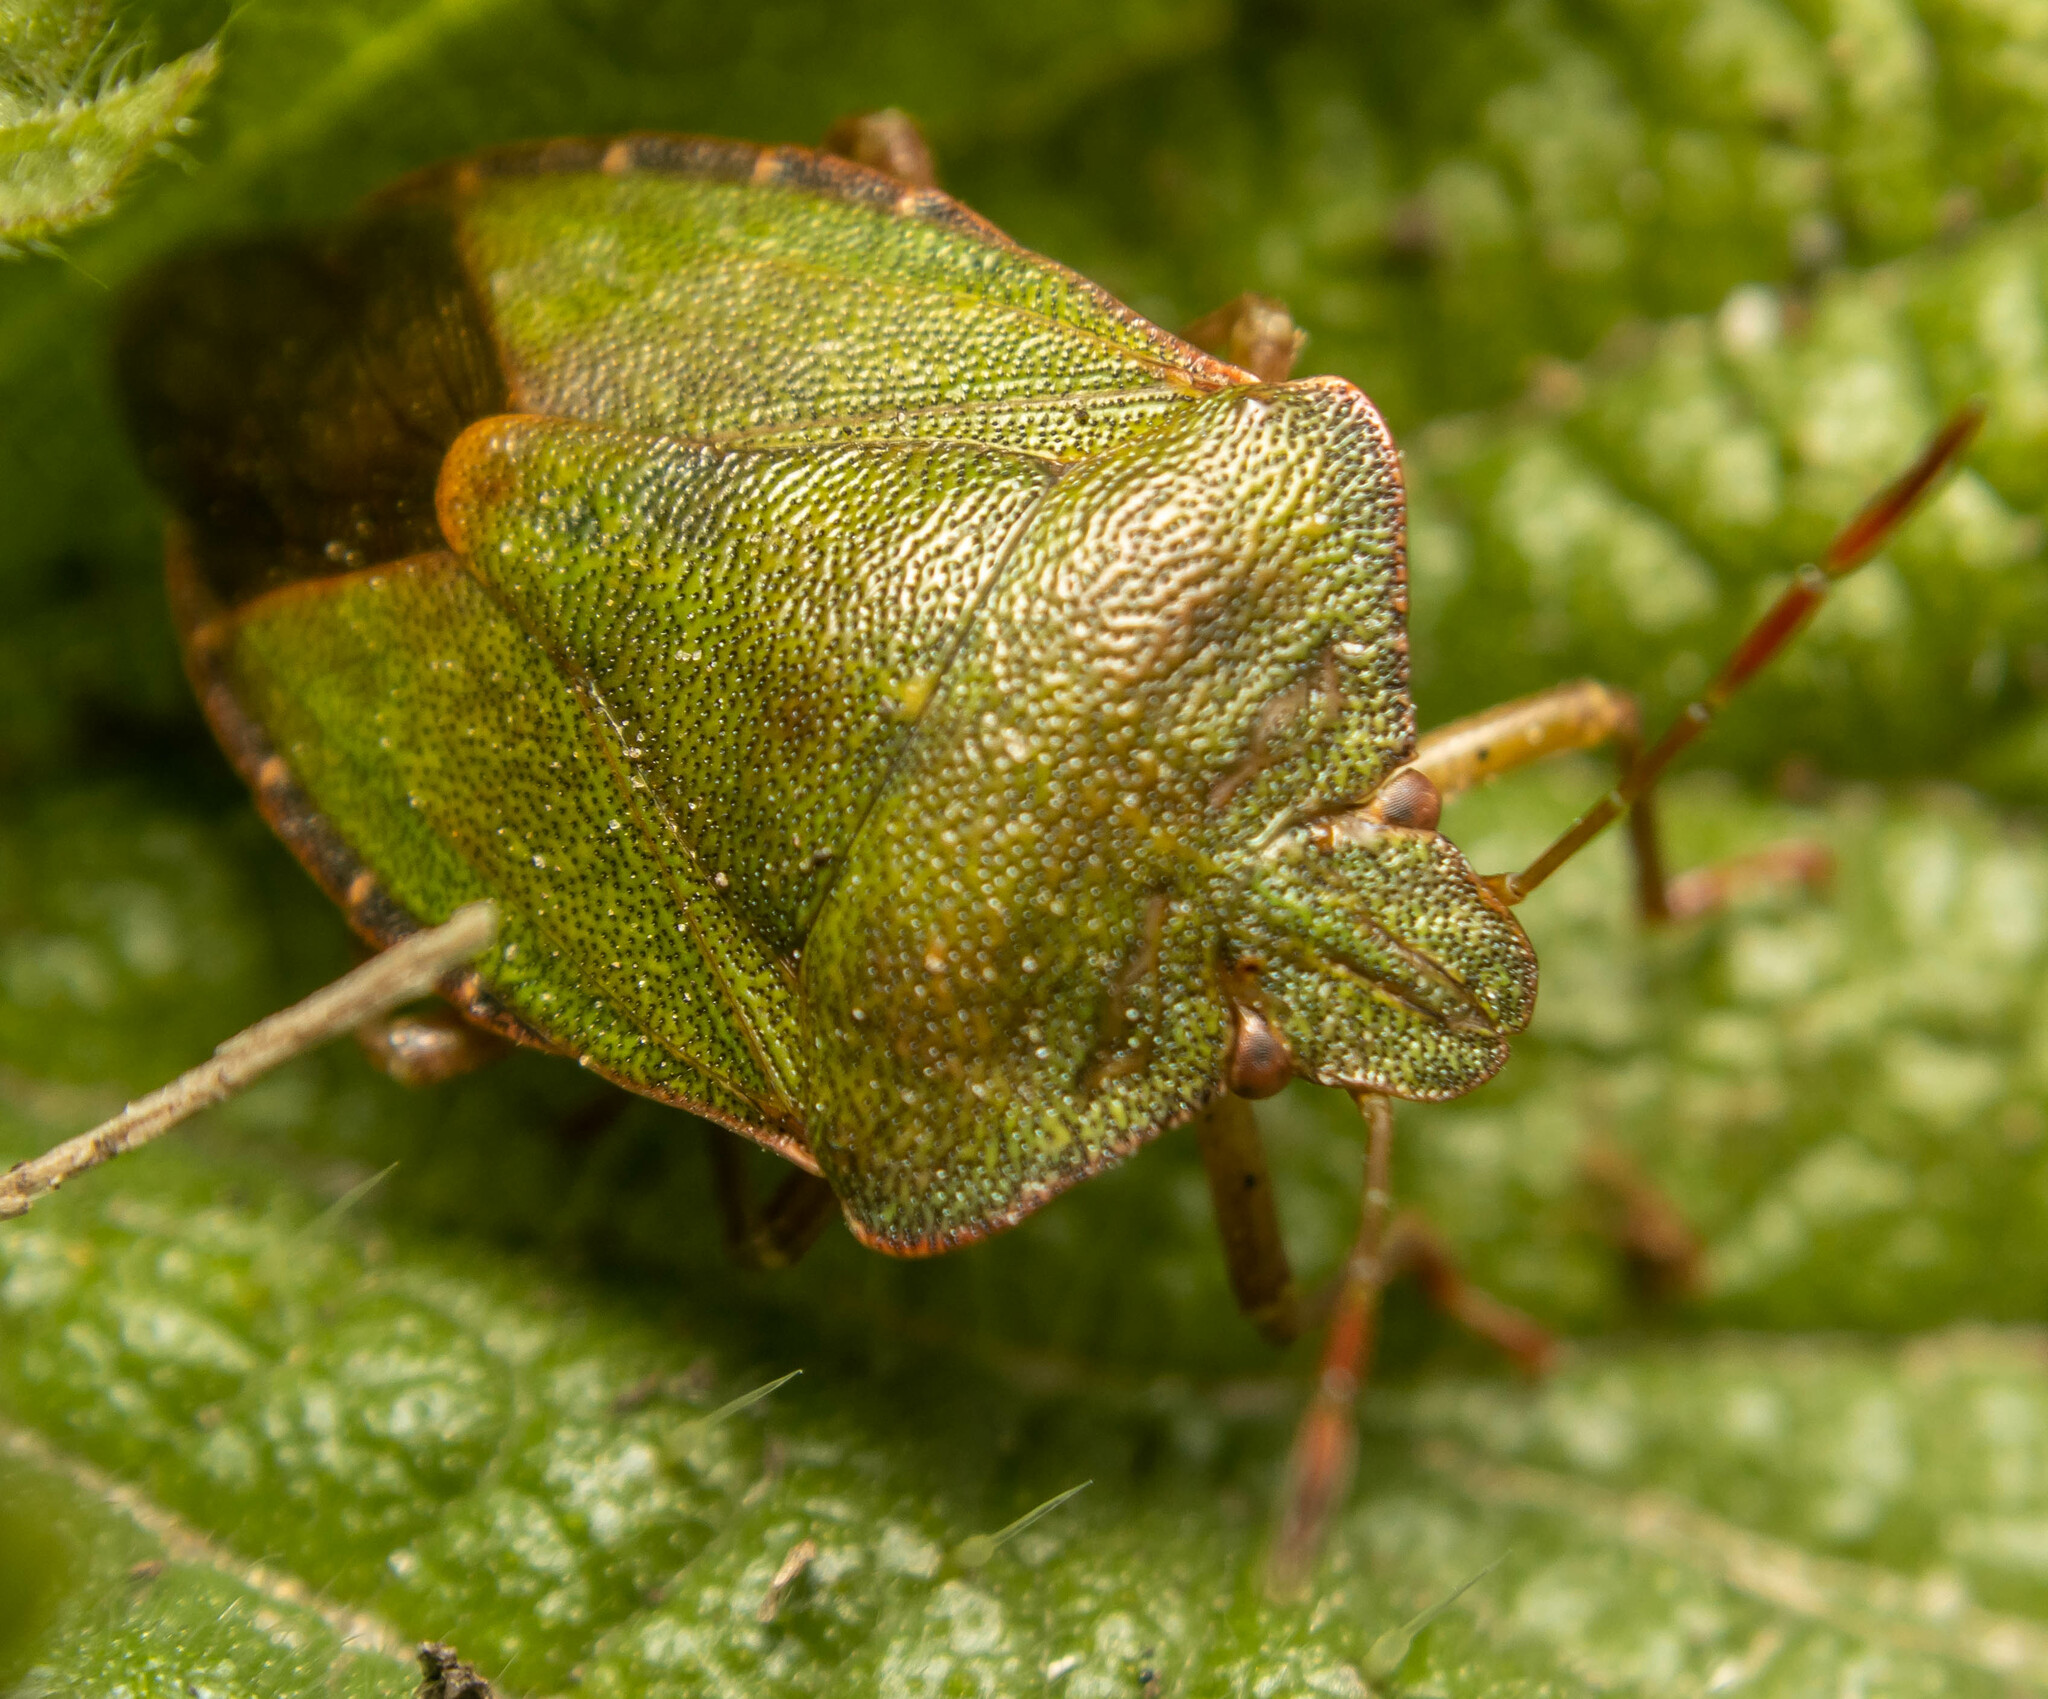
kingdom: Animalia
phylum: Arthropoda
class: Insecta
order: Hemiptera
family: Pentatomidae
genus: Palomena
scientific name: Palomena prasina
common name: Green shieldbug
